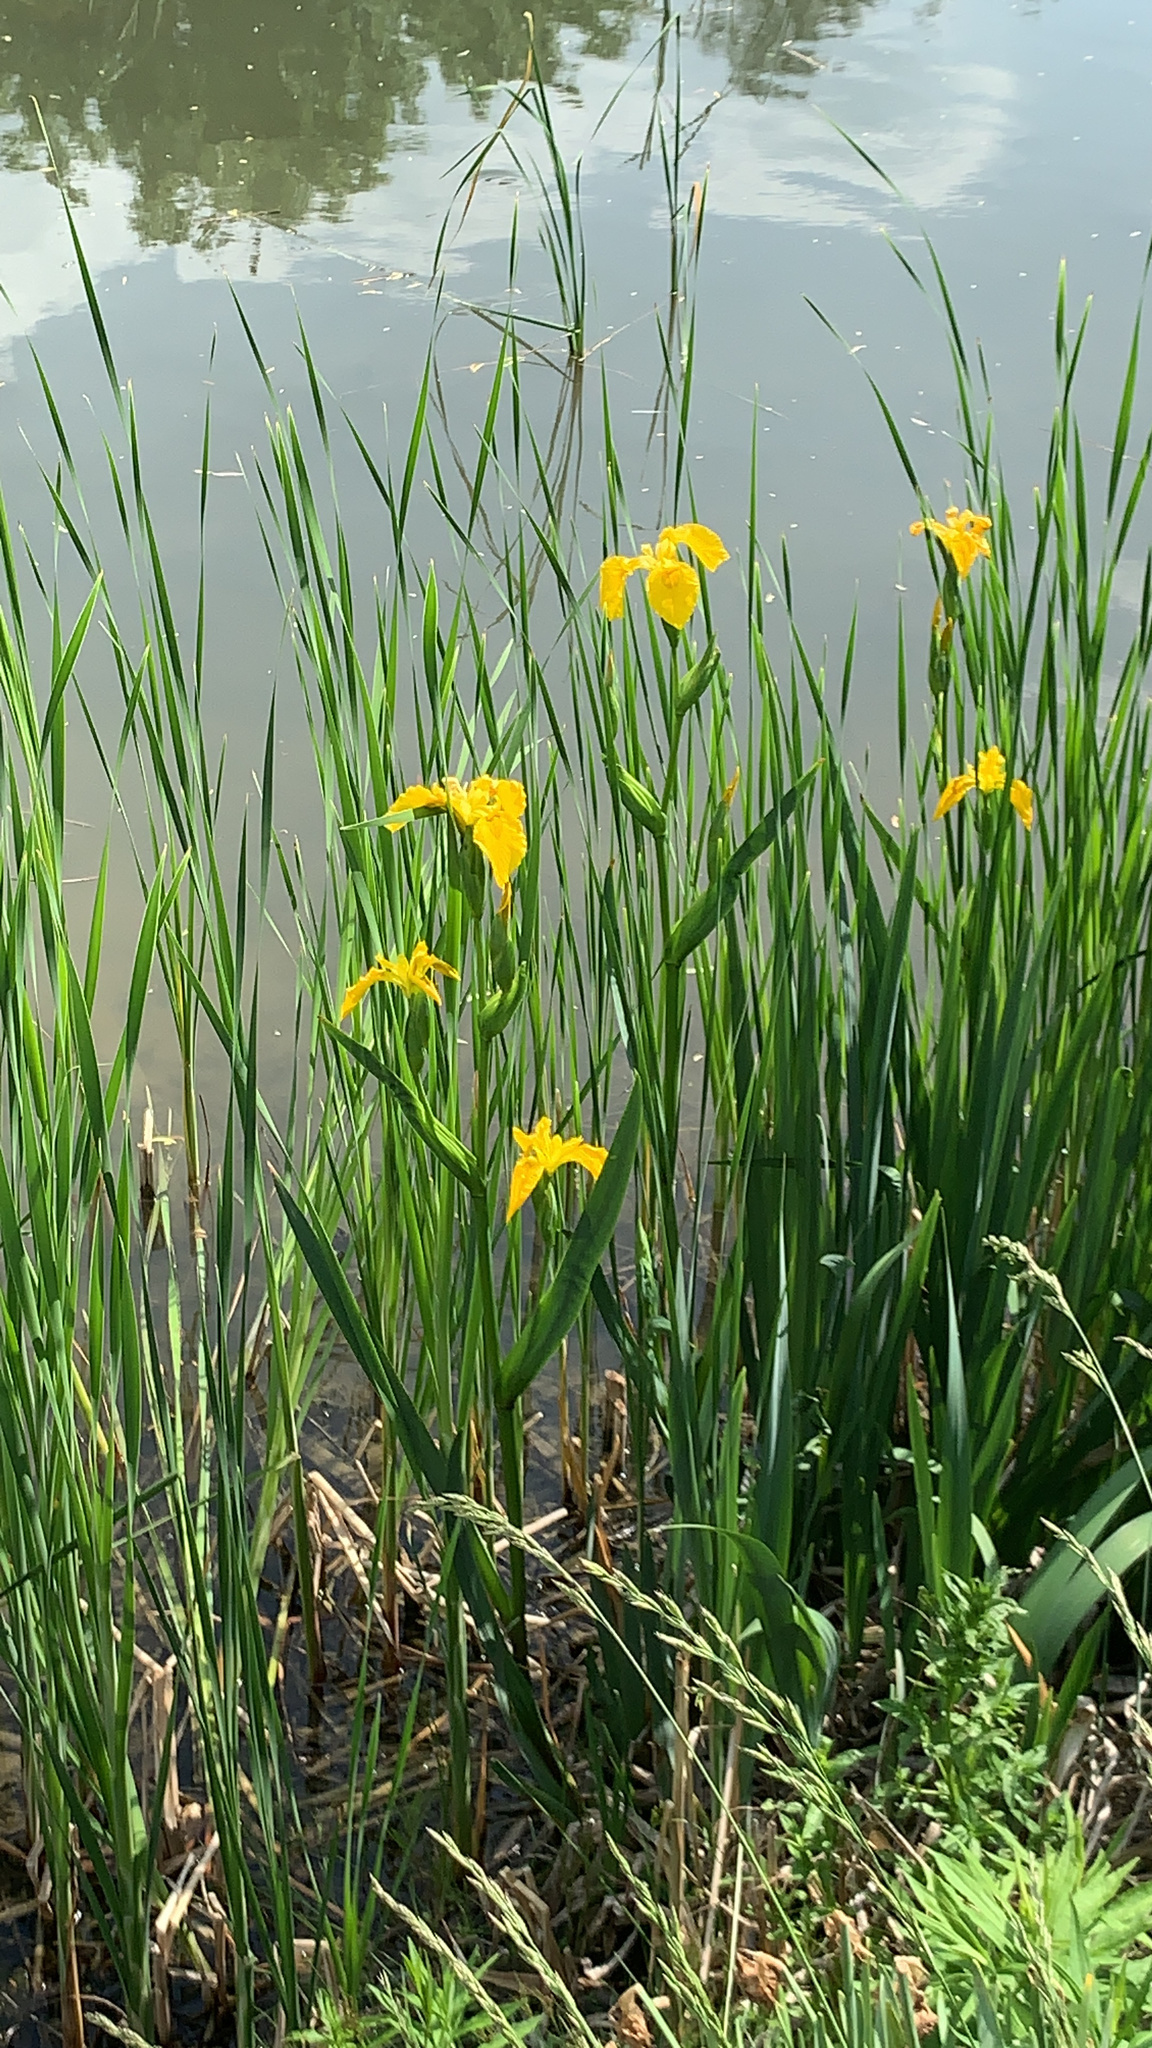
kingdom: Plantae
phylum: Tracheophyta
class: Liliopsida
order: Asparagales
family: Iridaceae
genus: Iris
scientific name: Iris pseudacorus
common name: Yellow flag
